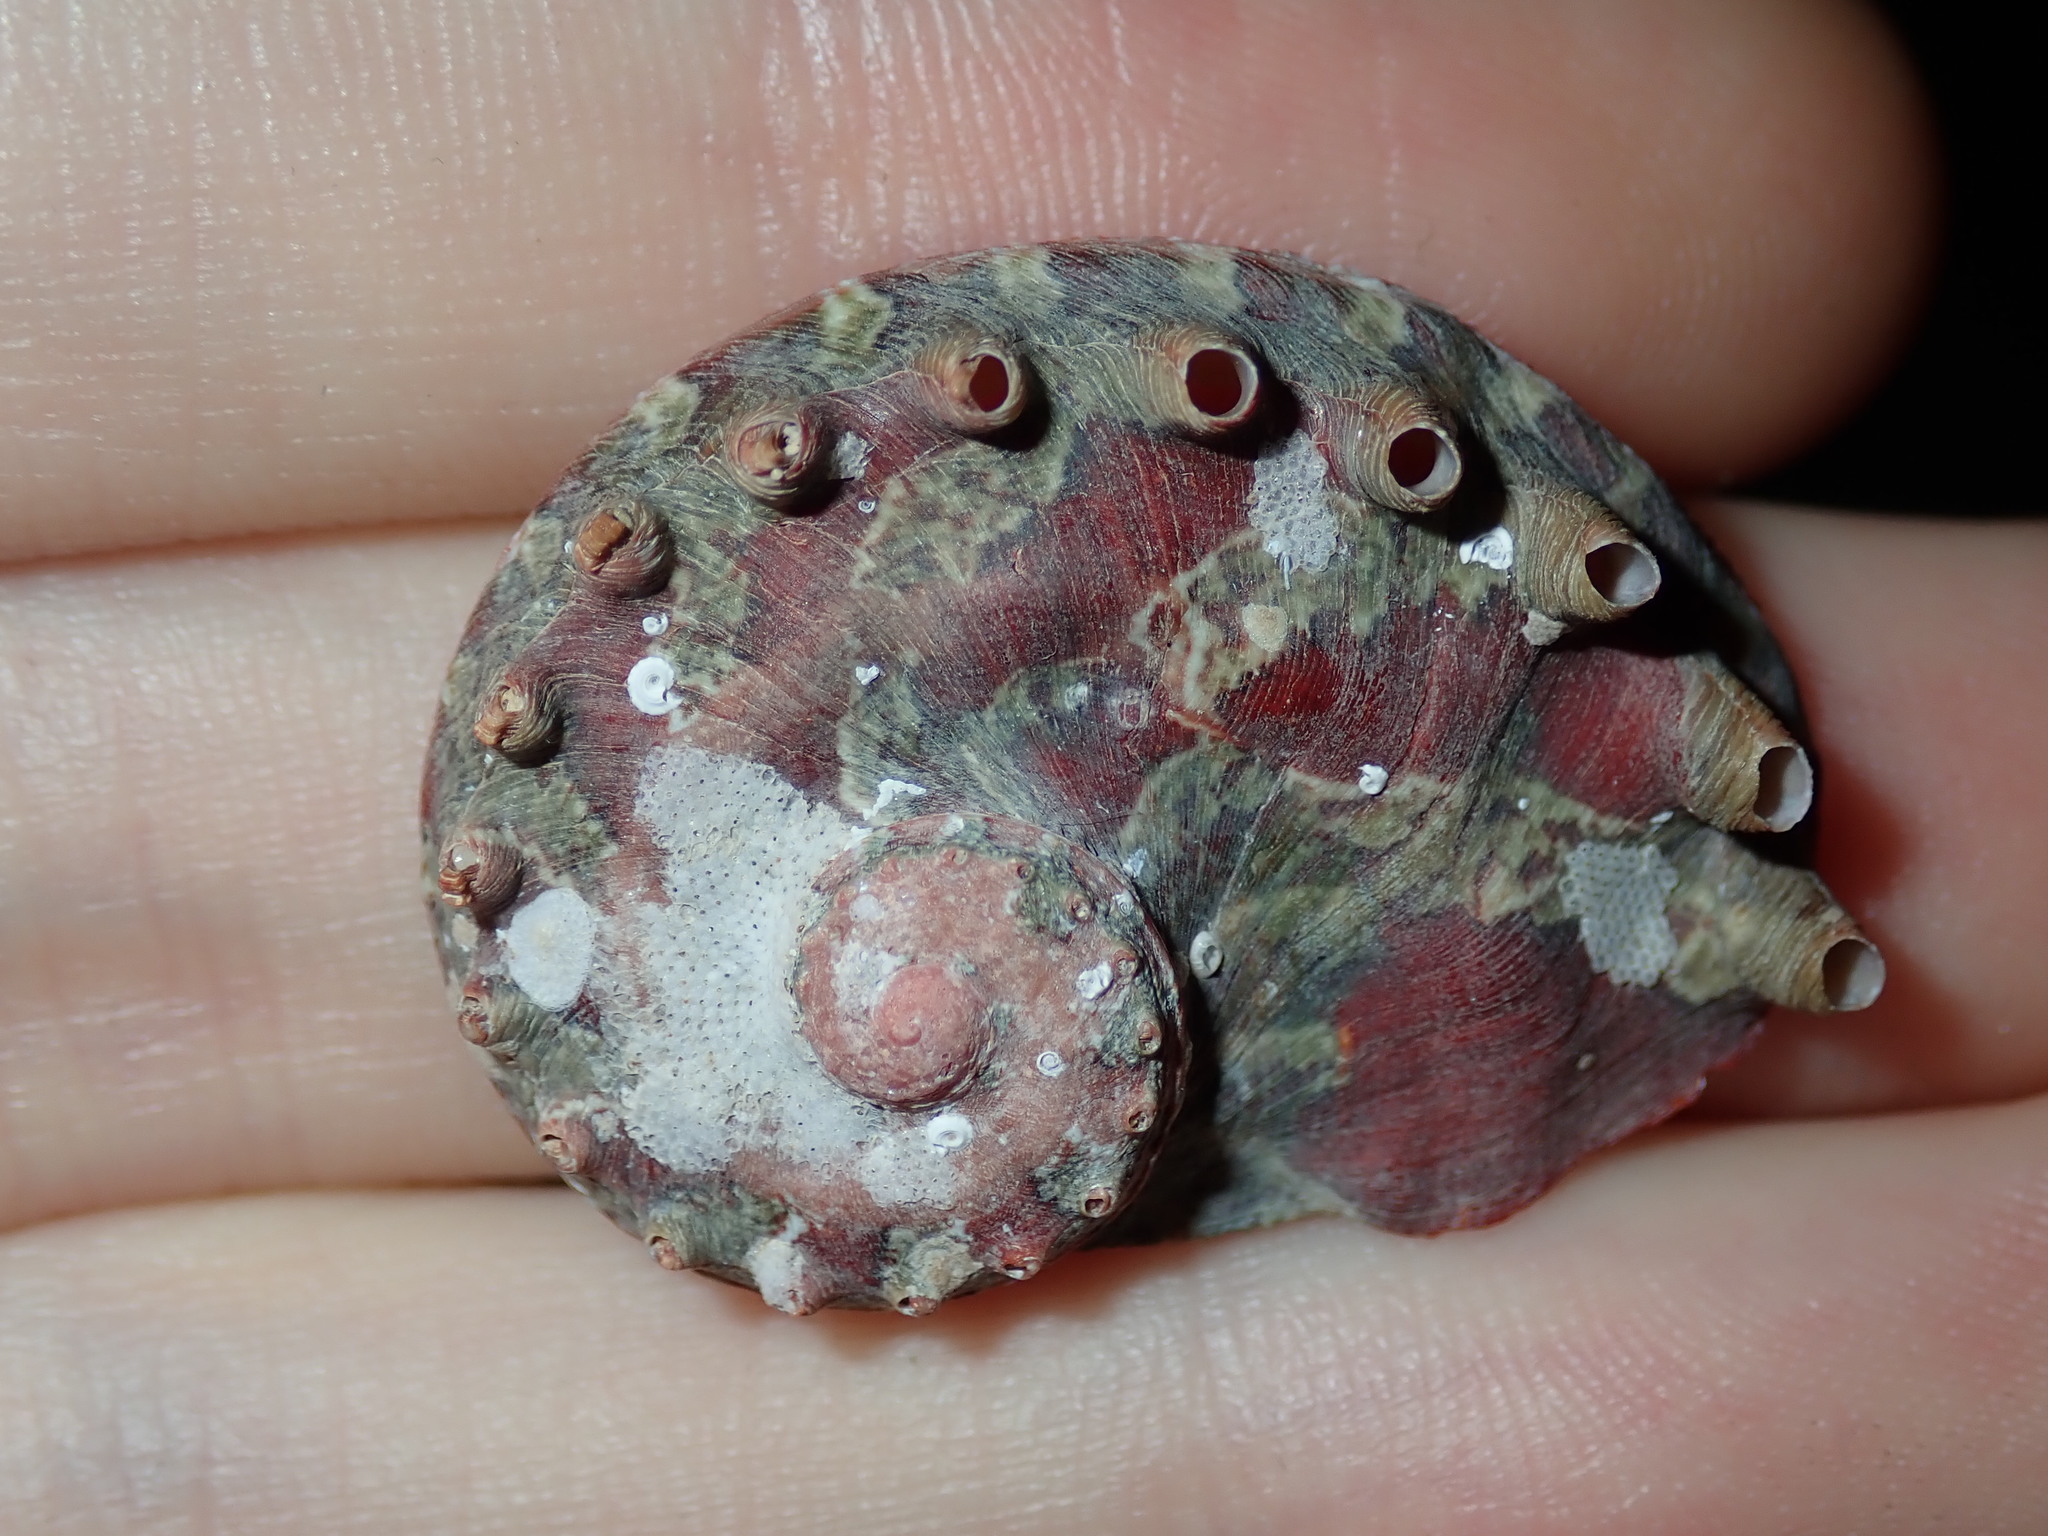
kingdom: Animalia
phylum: Mollusca
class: Gastropoda
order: Lepetellida
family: Haliotidae
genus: Haliotis
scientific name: Haliotis brazieri
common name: Brazier's ear shell
